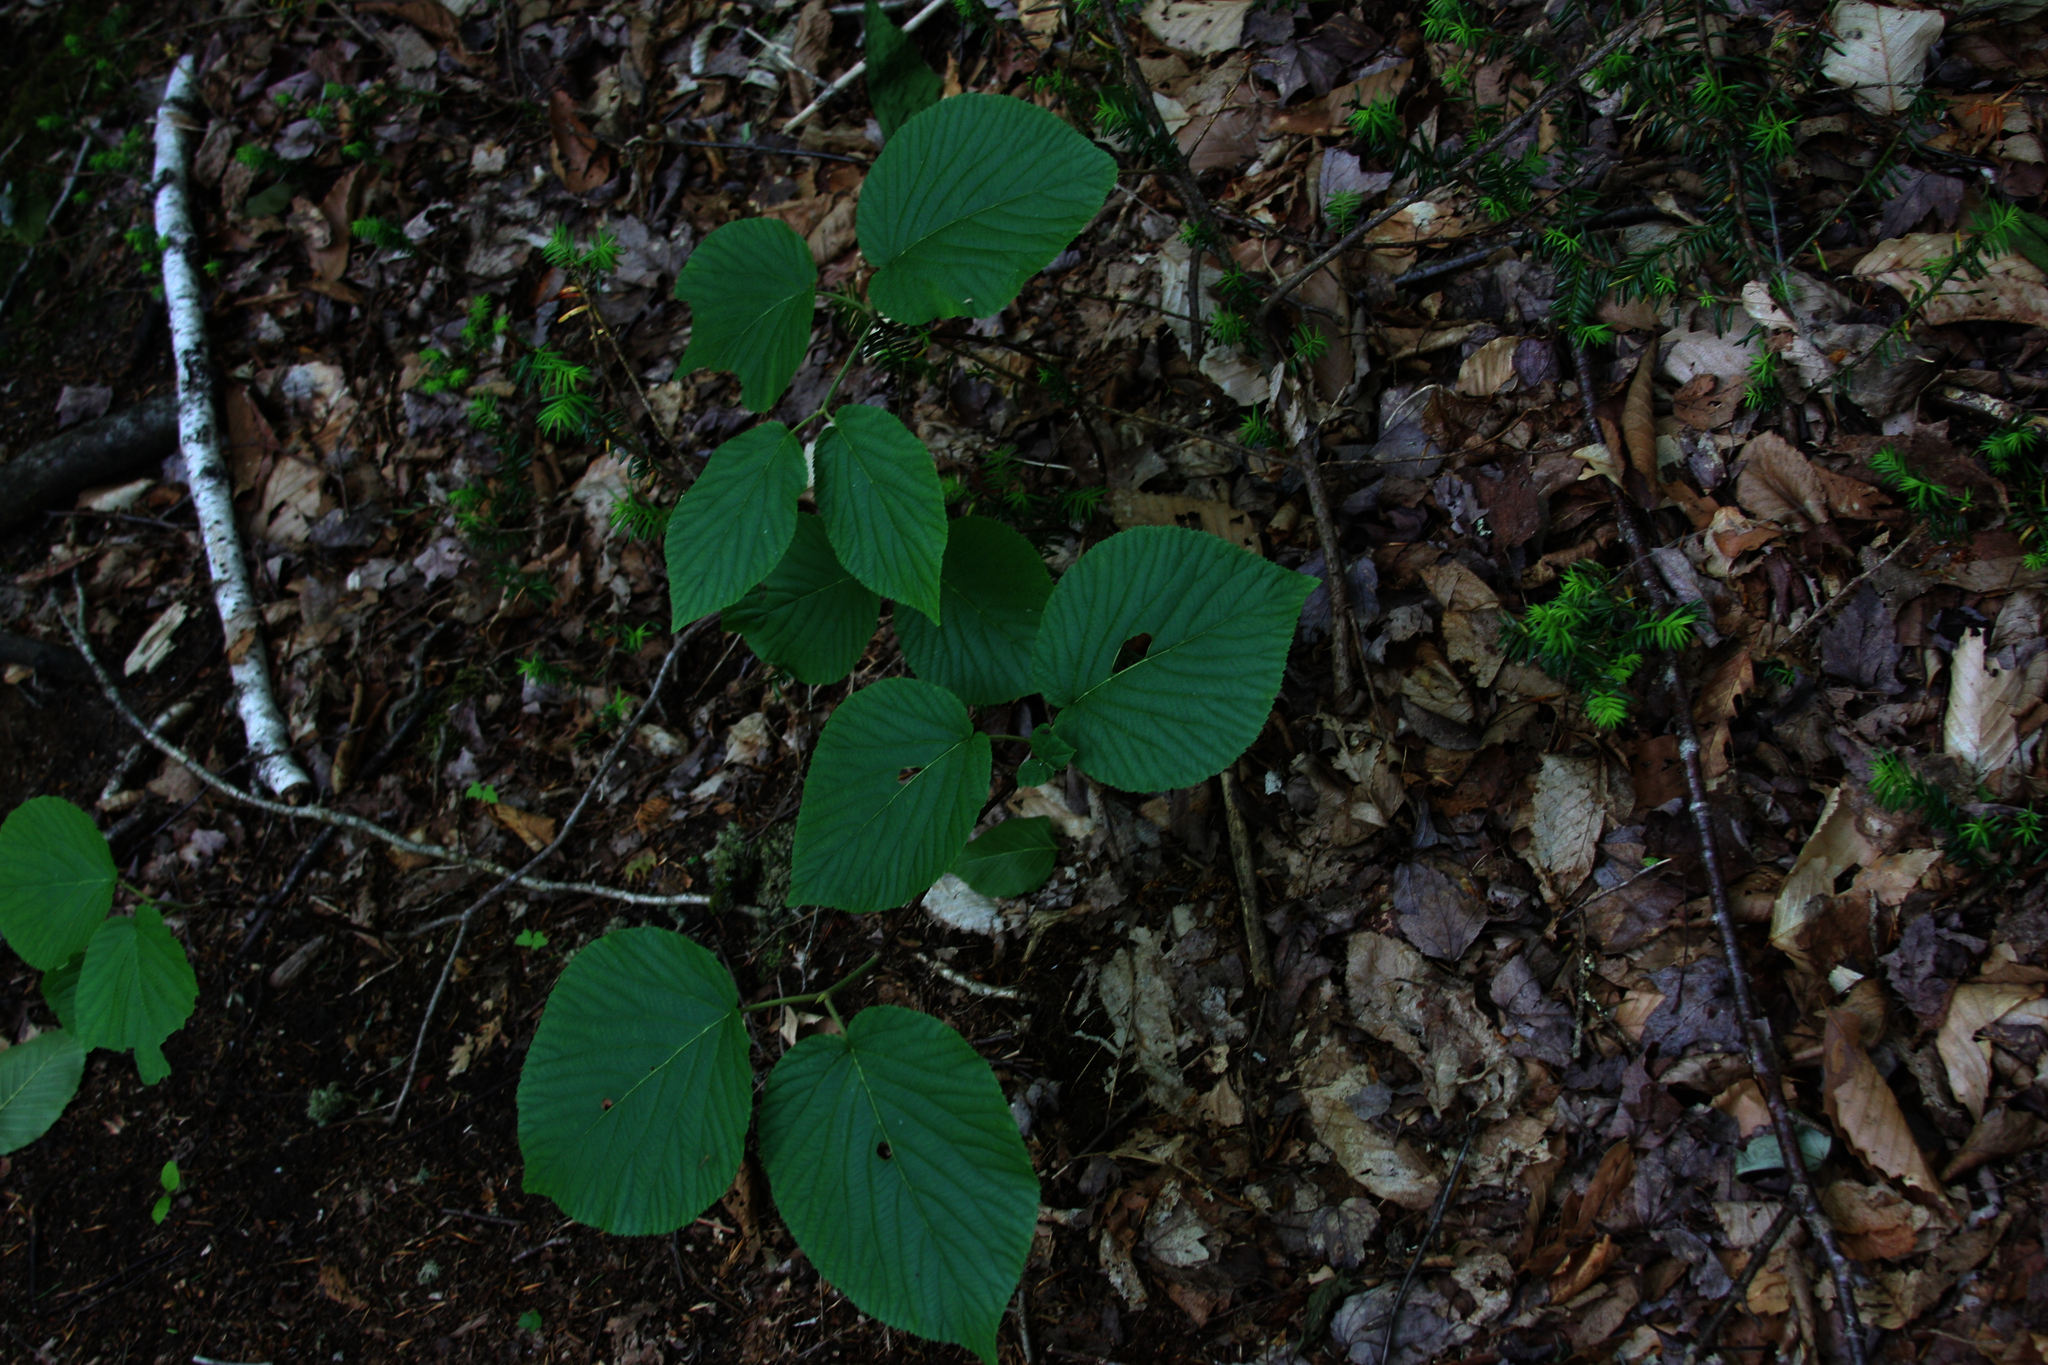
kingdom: Plantae
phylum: Tracheophyta
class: Magnoliopsida
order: Dipsacales
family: Viburnaceae
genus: Viburnum
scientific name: Viburnum lantanoides
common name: Hobblebush
